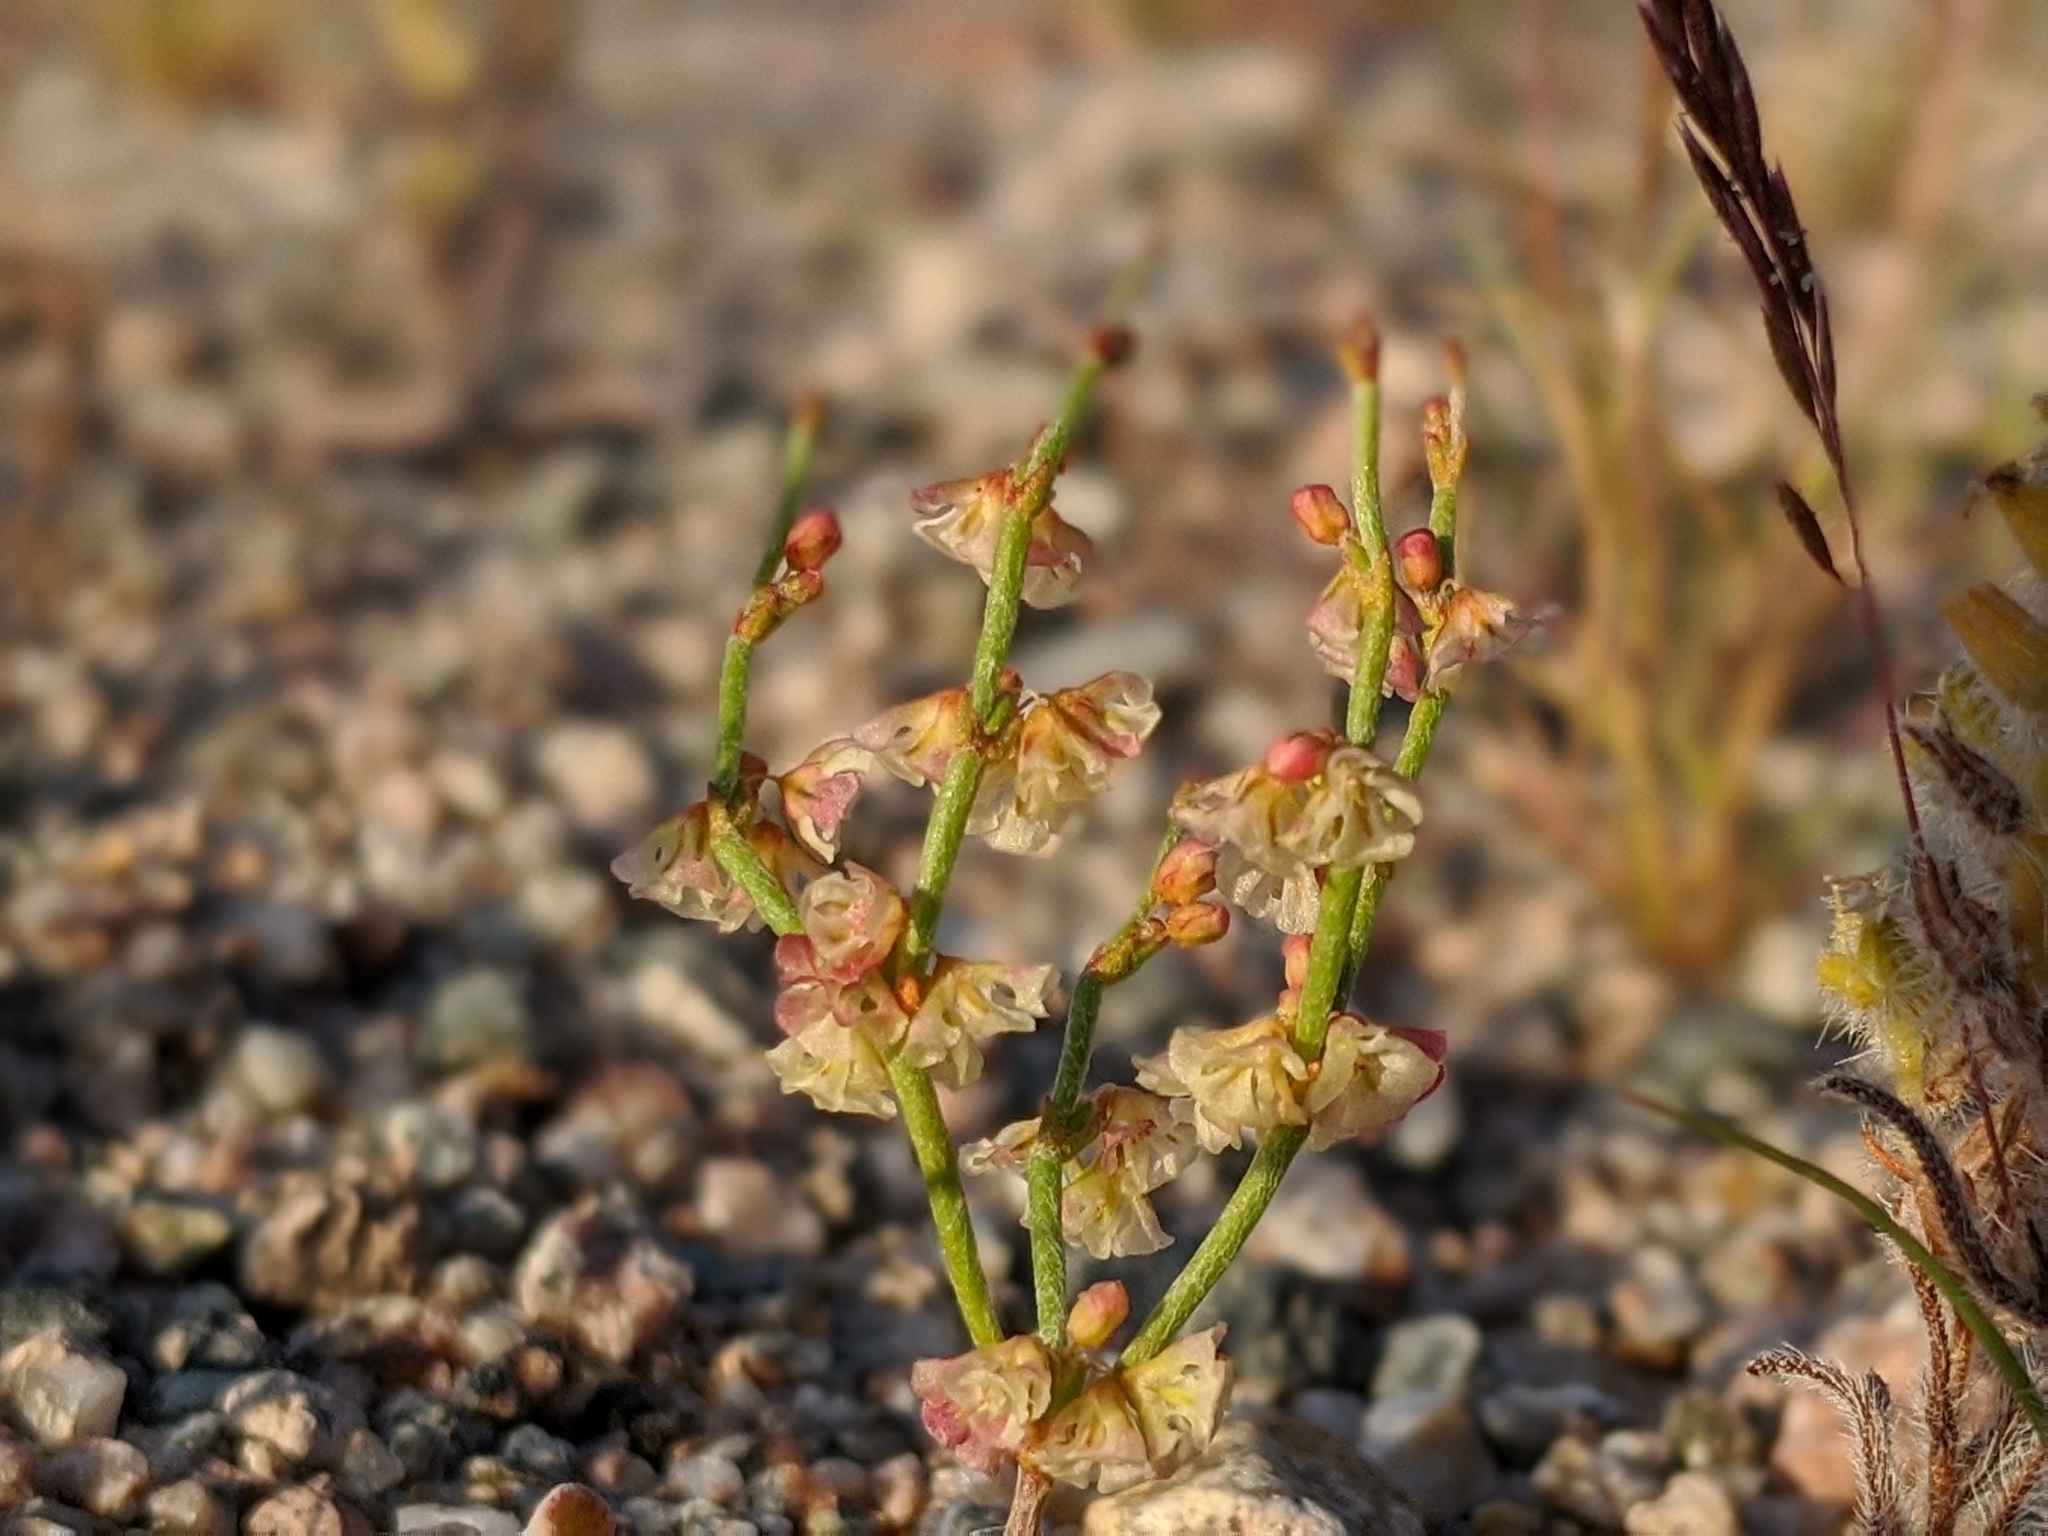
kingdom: Plantae
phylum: Tracheophyta
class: Magnoliopsida
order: Caryophyllales
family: Polygonaceae
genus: Eriogonum
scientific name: Eriogonum nidularium
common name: Bird's-nest wild buckwheat
